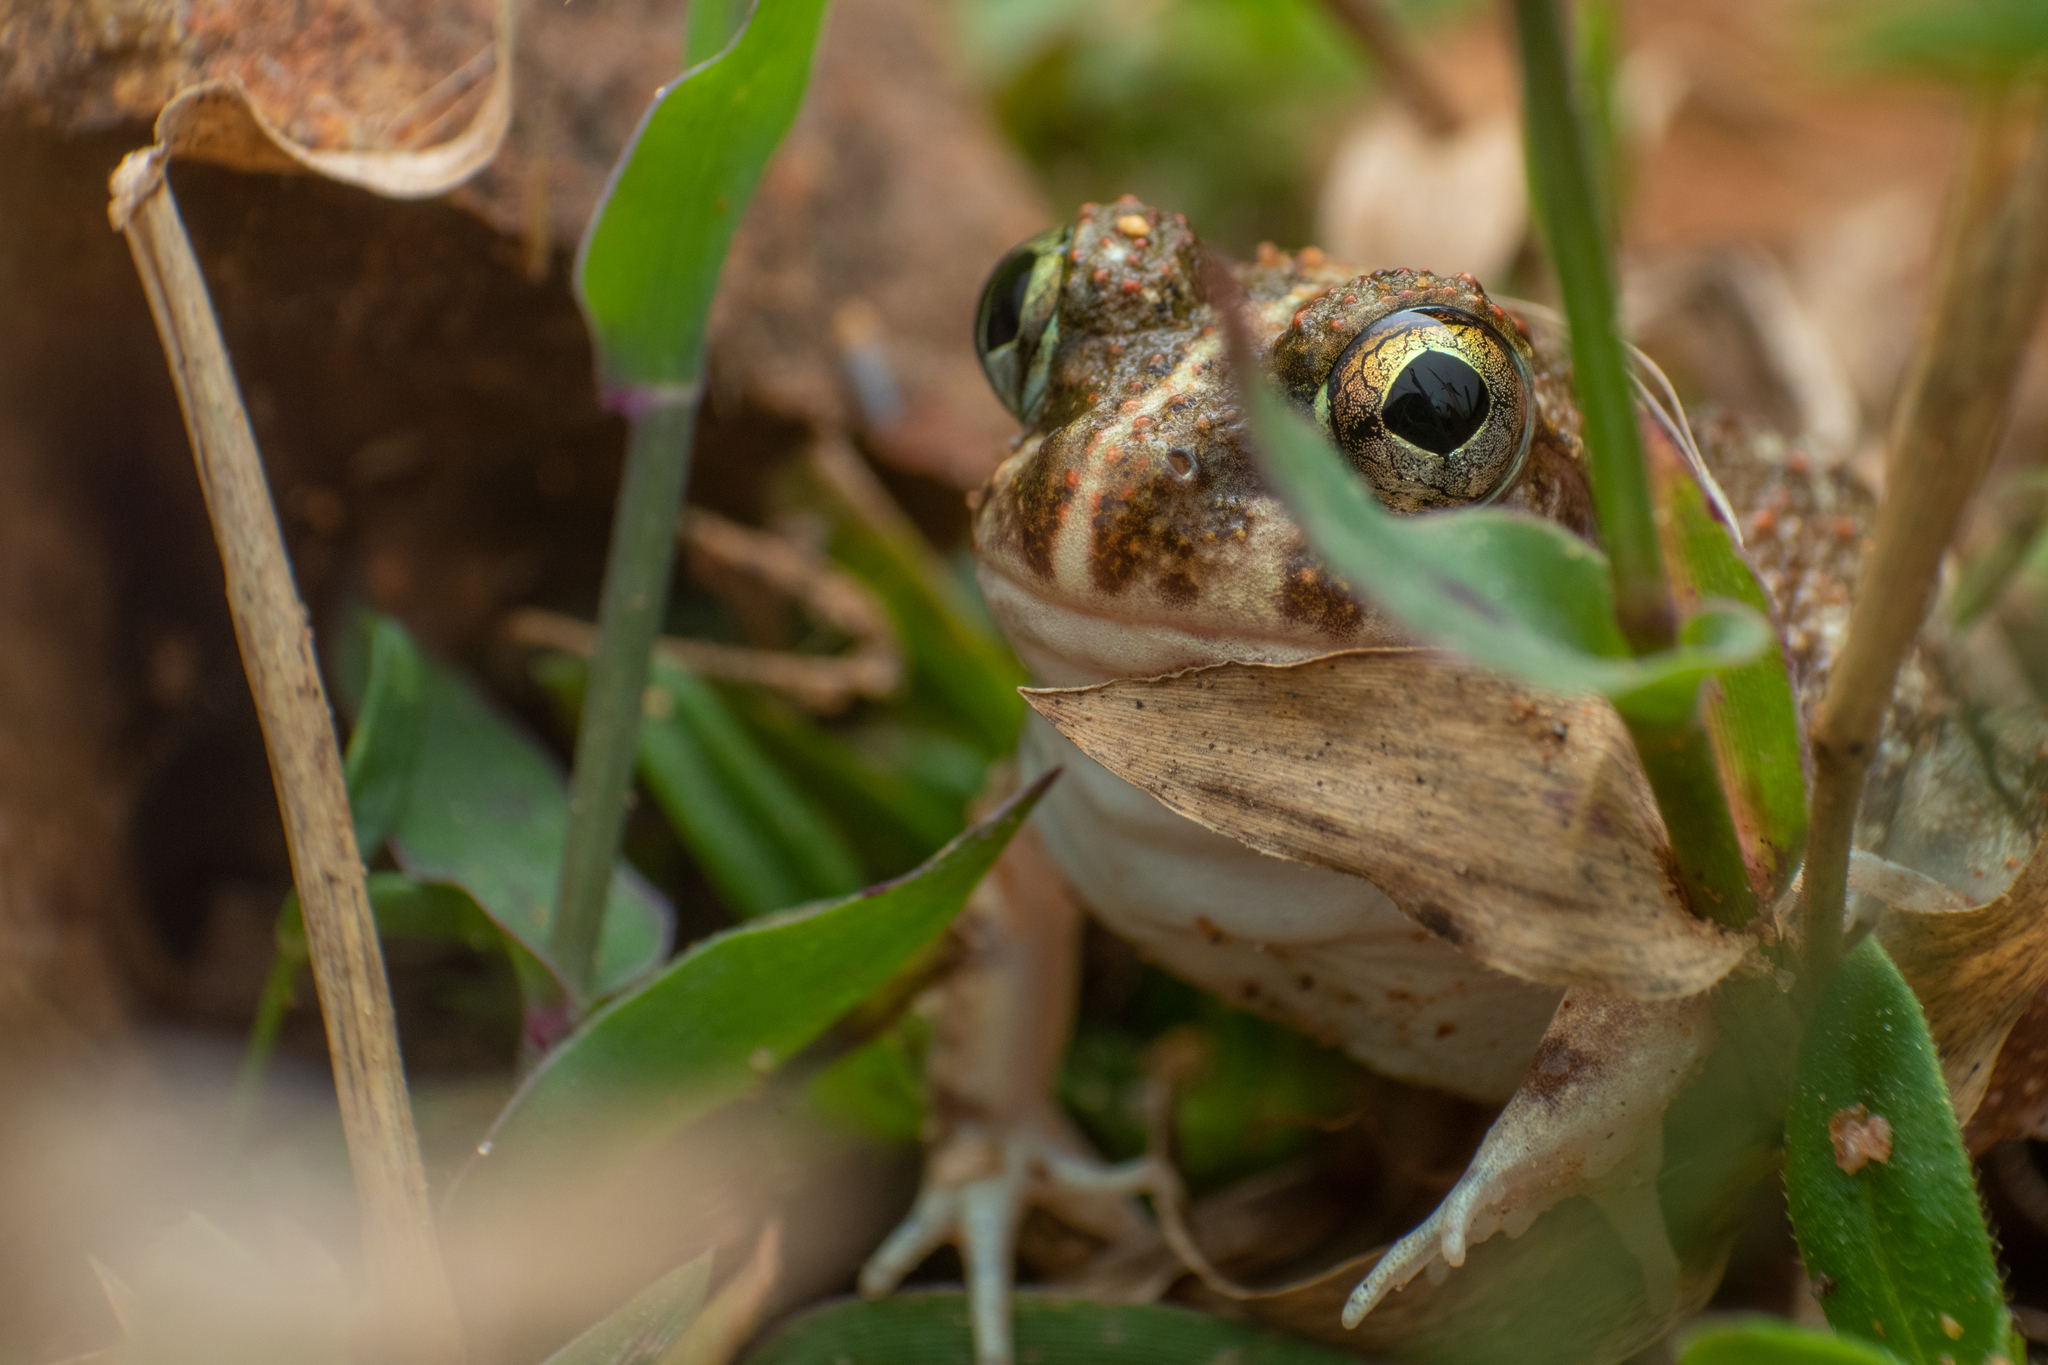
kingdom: Animalia
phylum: Chordata
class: Amphibia
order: Anura
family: Dicroglossidae
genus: Sphaerotheca
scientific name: Sphaerotheca breviceps
